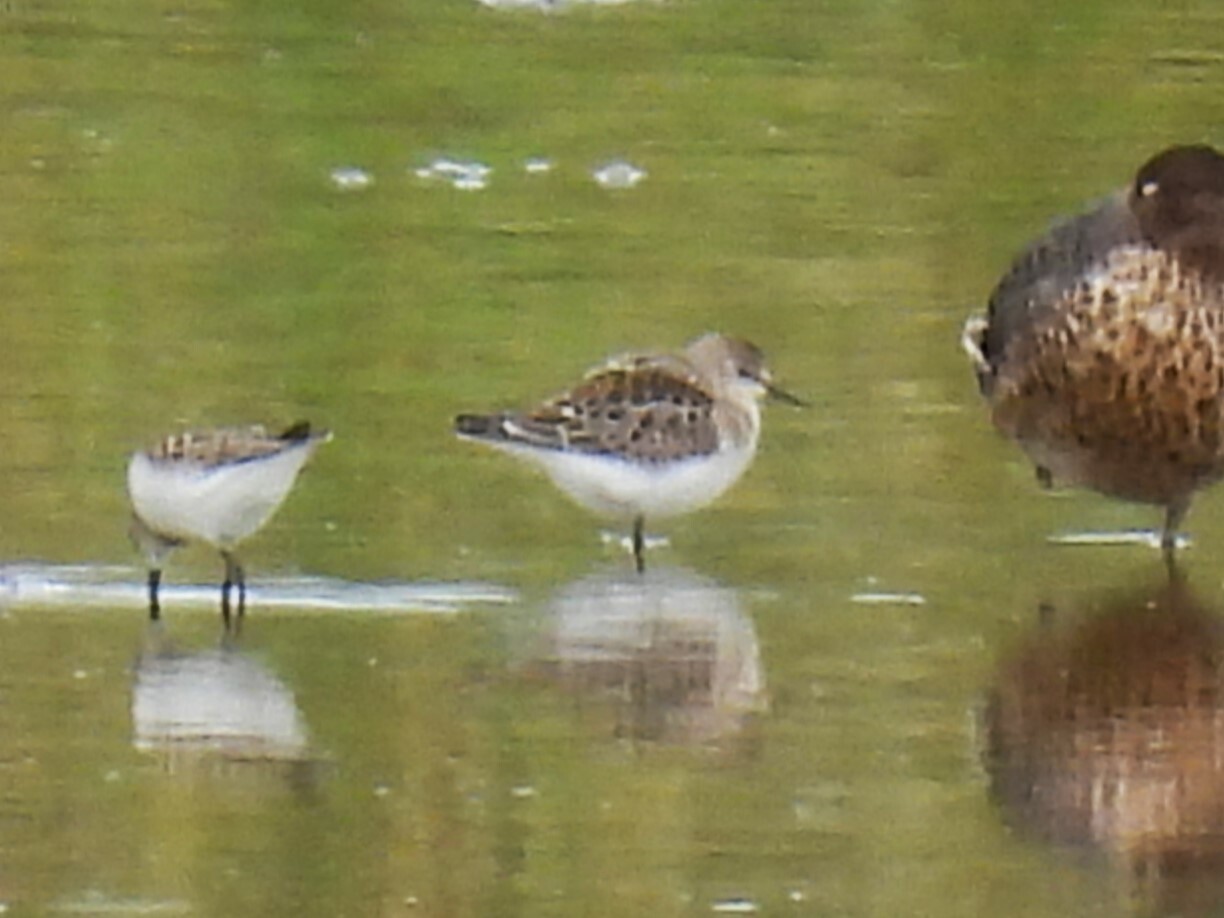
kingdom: Animalia
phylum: Chordata
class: Aves
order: Charadriiformes
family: Scolopacidae
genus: Calidris
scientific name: Calidris minuta
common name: Little stint
